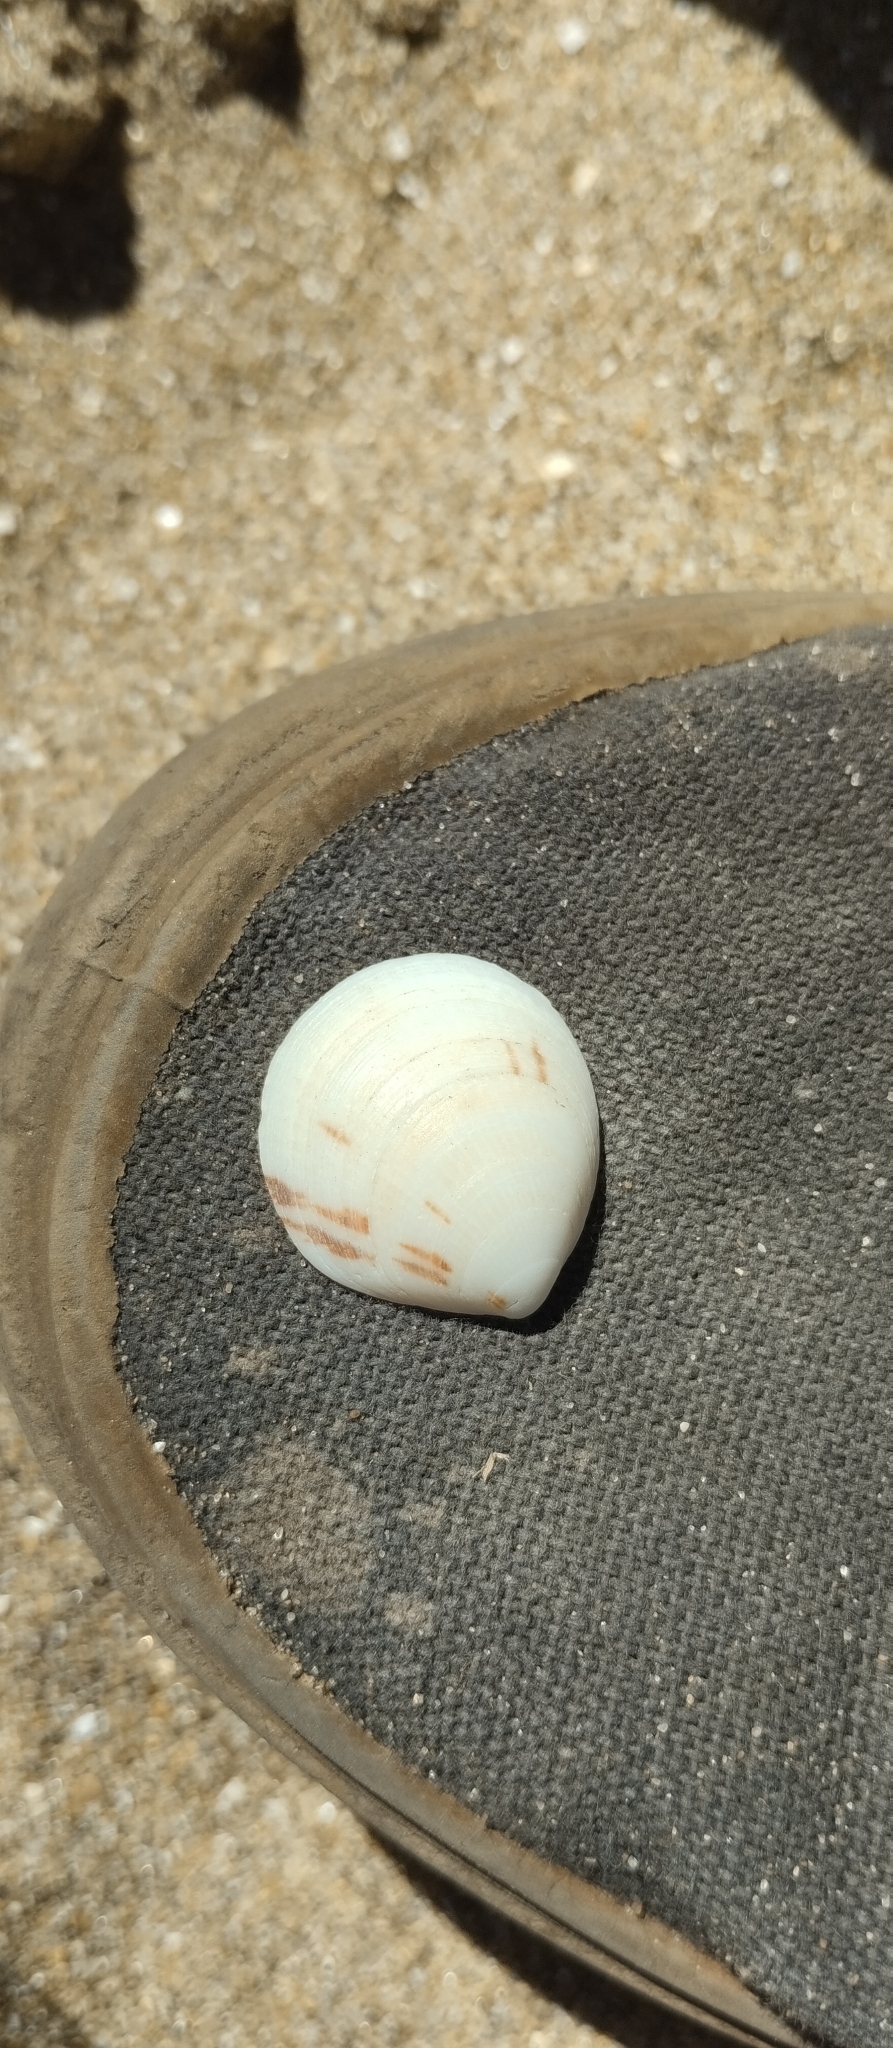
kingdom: Animalia
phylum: Mollusca
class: Bivalvia
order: Arcida
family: Glycymerididae
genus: Glycymeris
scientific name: Glycymeris longior
